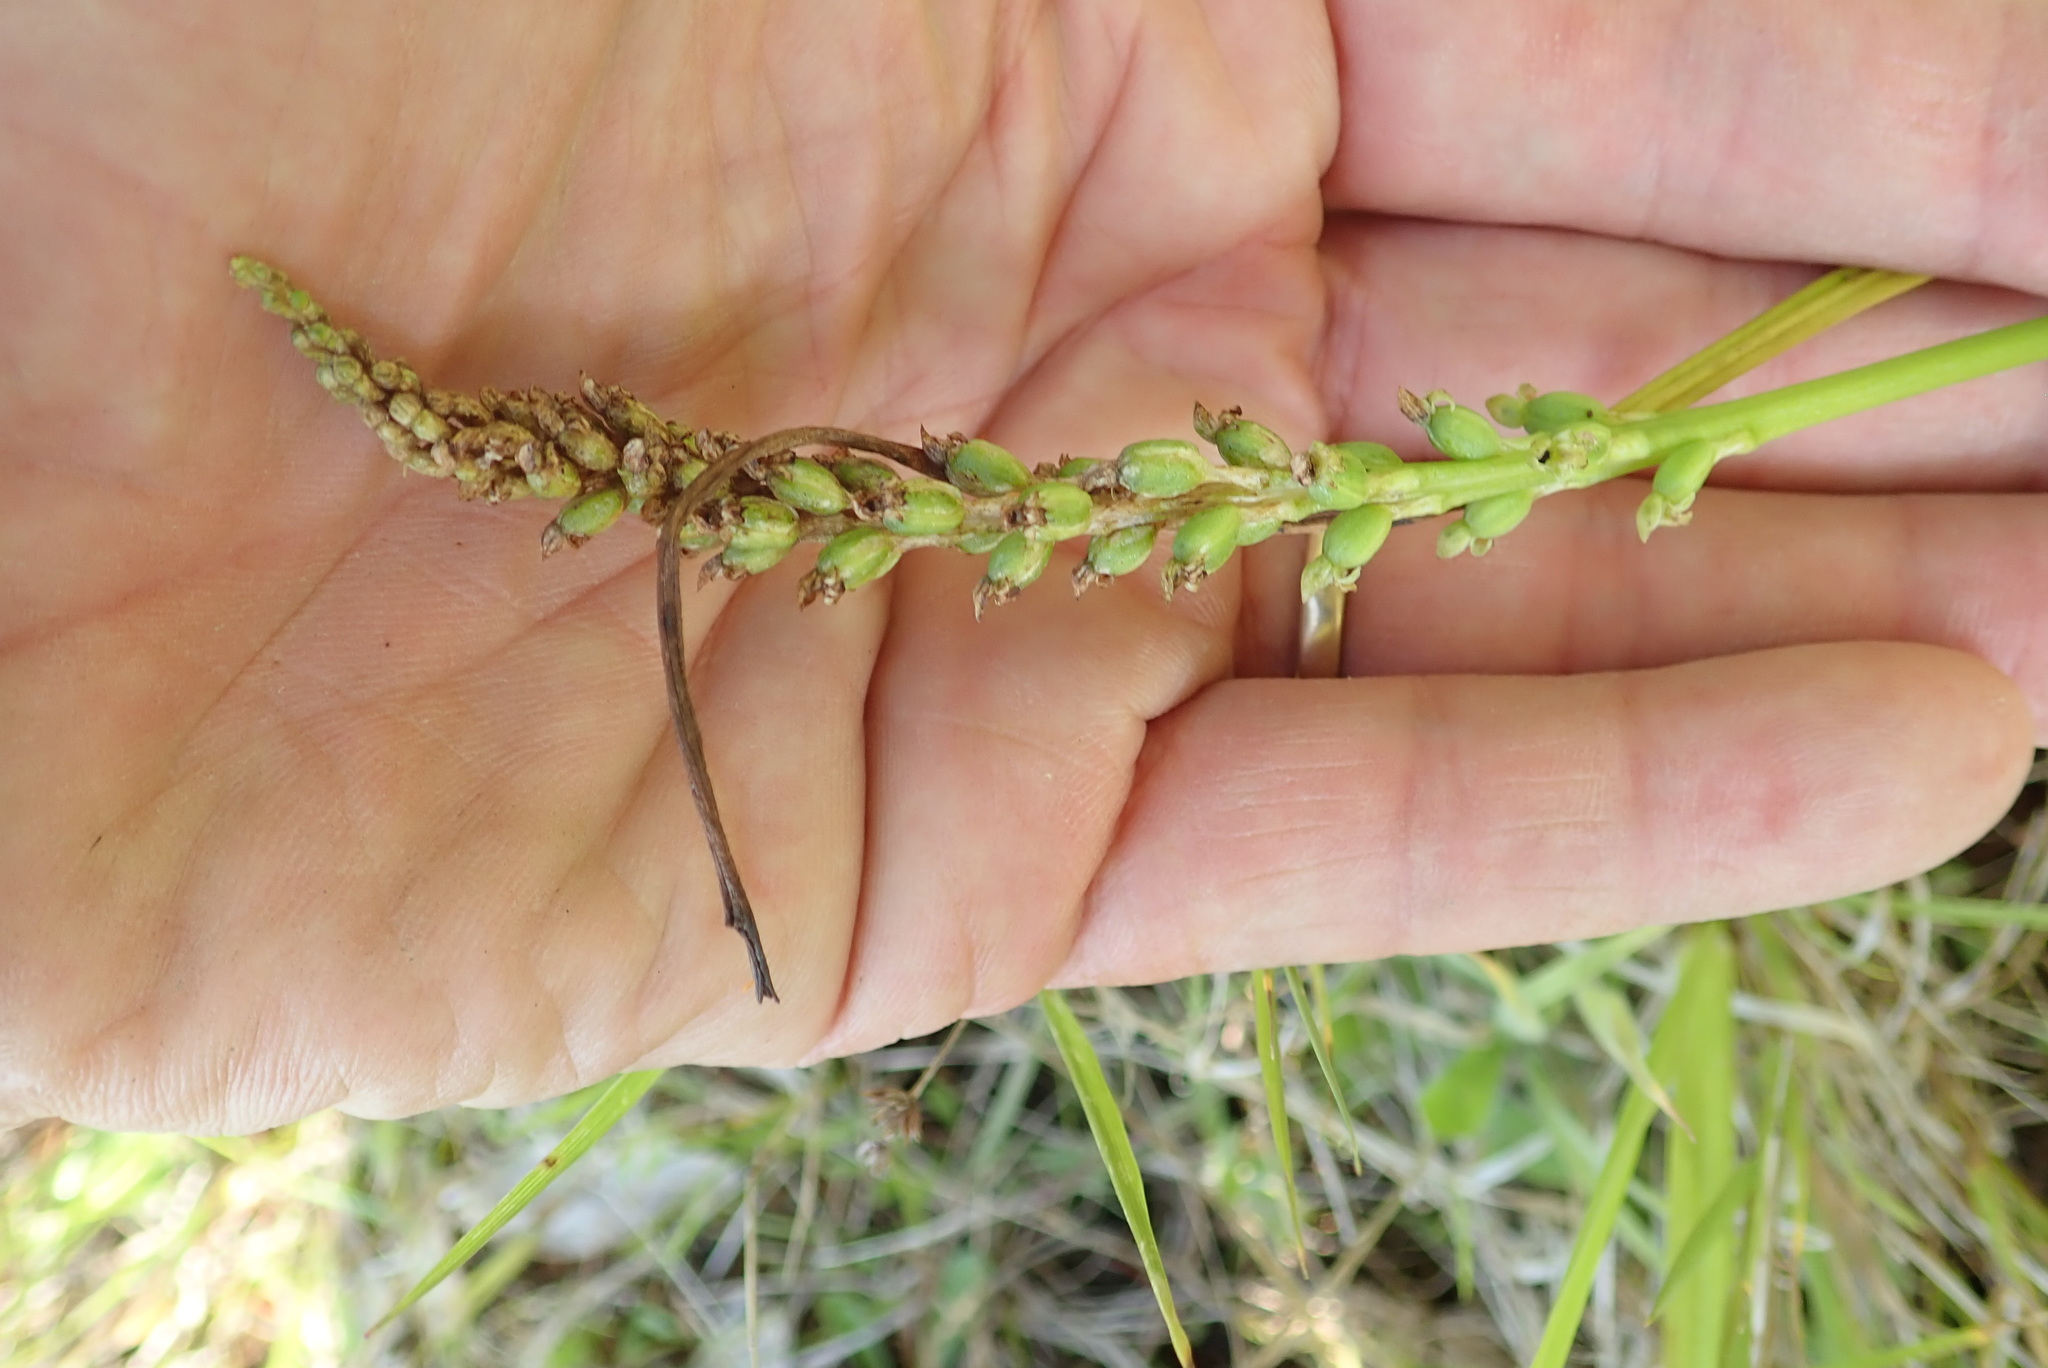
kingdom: Plantae
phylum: Tracheophyta
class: Liliopsida
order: Asparagales
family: Orchidaceae
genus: Microtis
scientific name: Microtis unifolia
